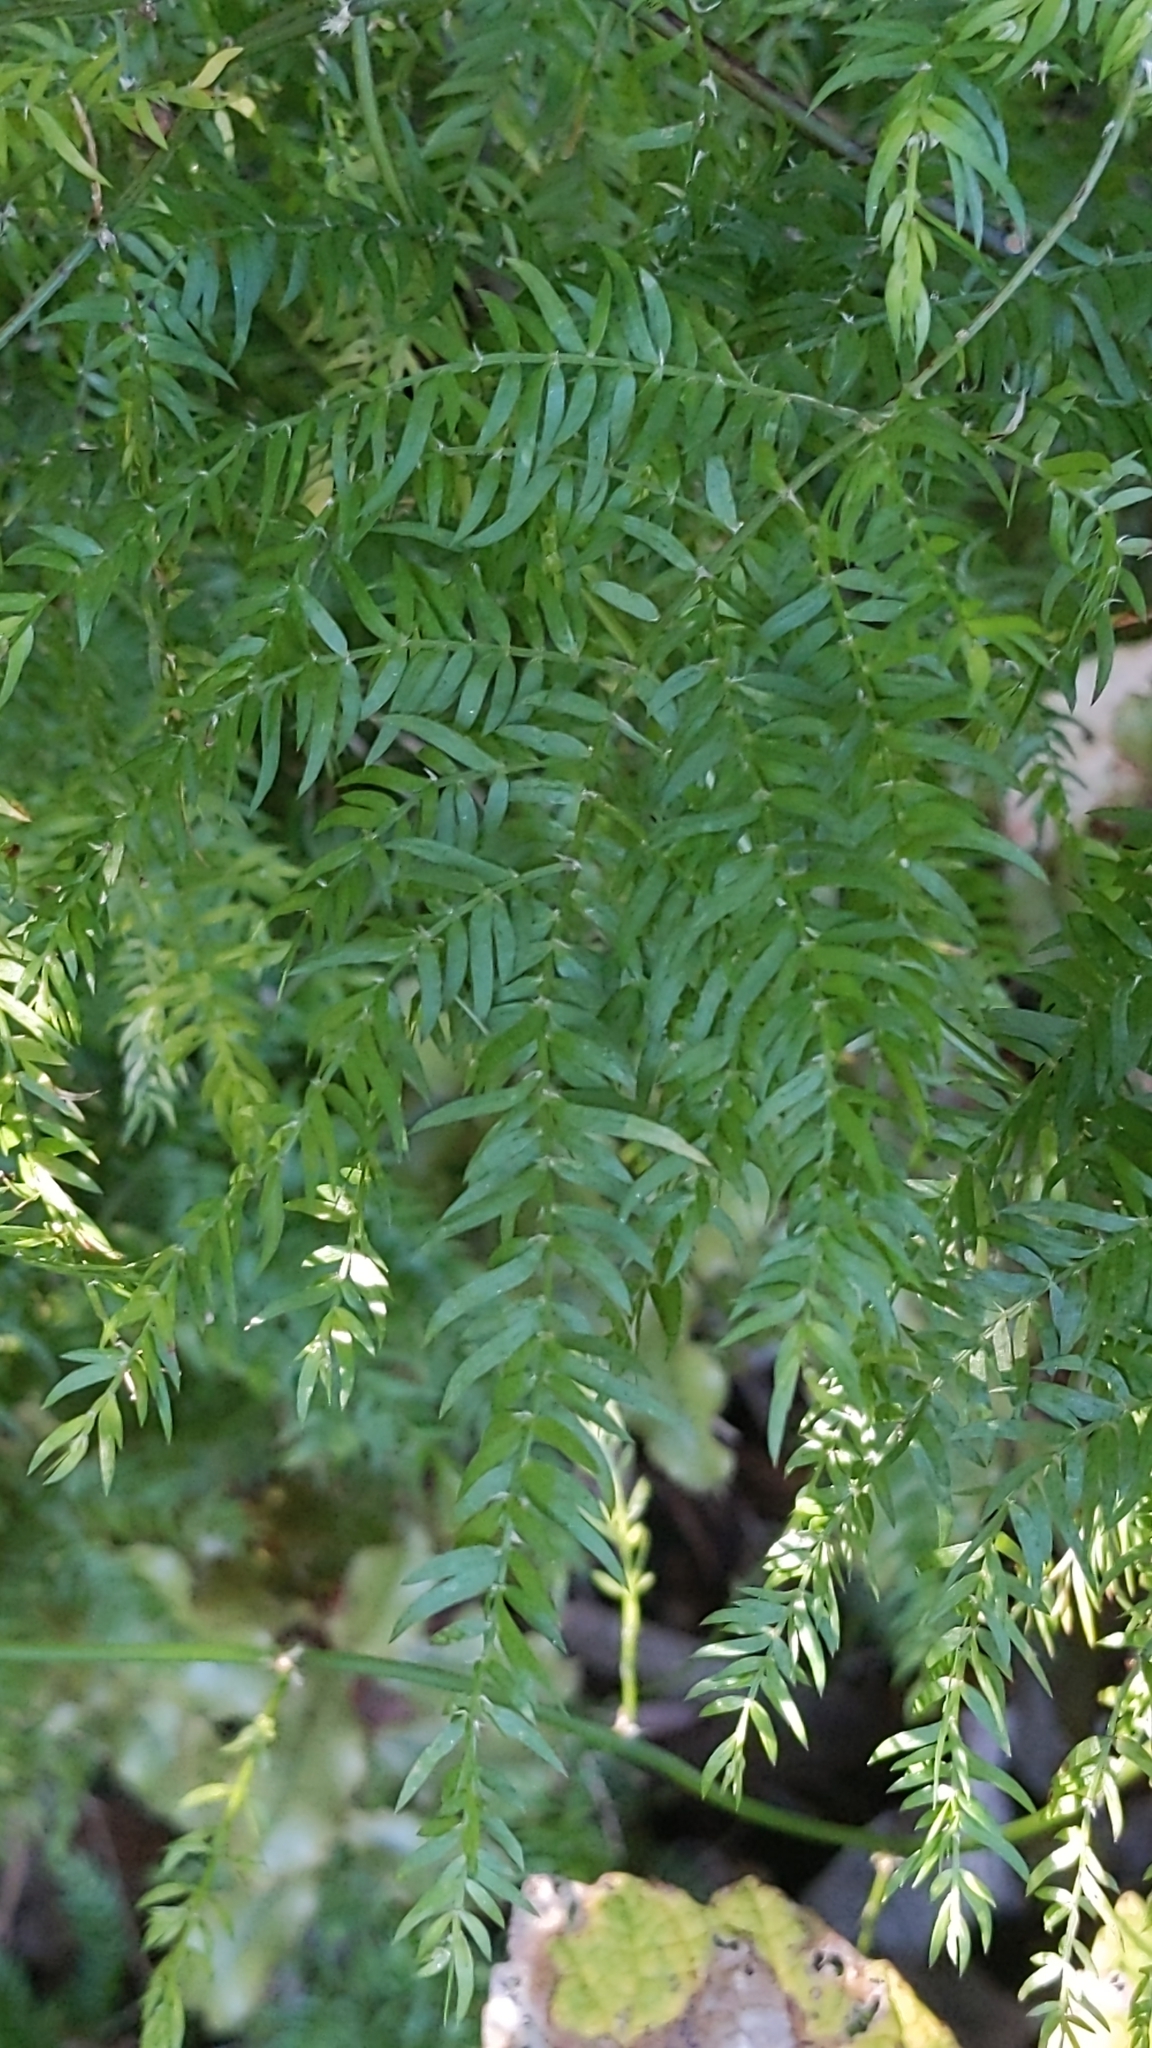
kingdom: Plantae
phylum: Tracheophyta
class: Liliopsida
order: Asparagales
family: Asparagaceae
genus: Asparagus
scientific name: Asparagus scandens
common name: Asparagus-fern
